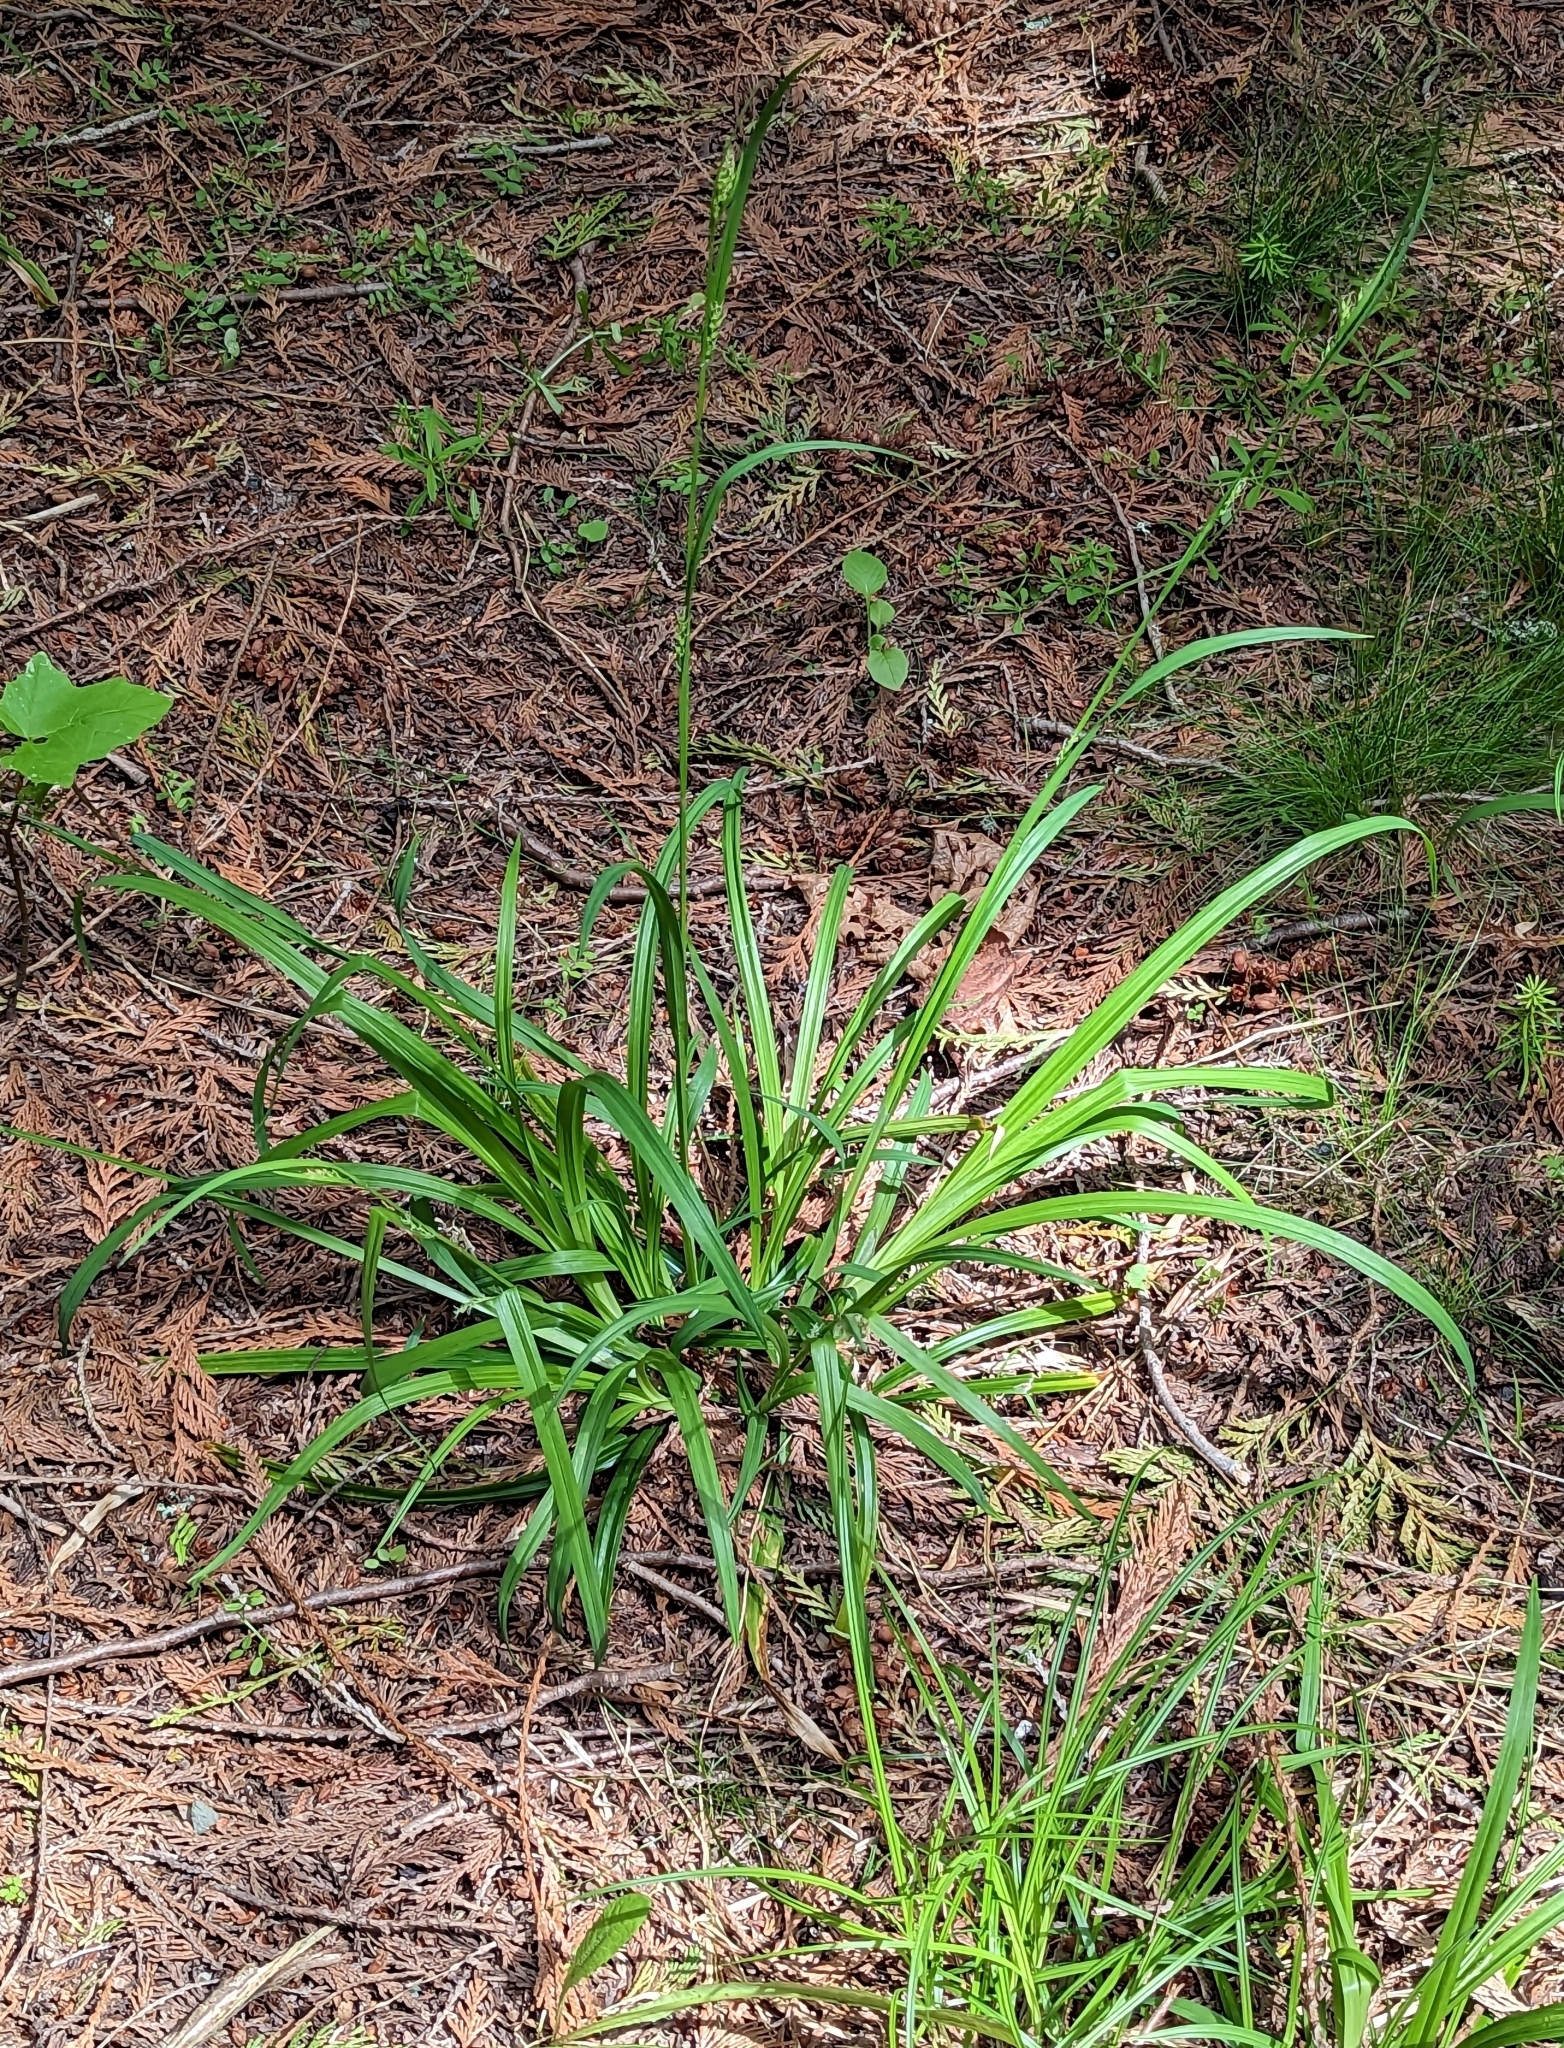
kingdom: Plantae
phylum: Tracheophyta
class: Liliopsida
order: Poales
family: Cyperaceae
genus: Carex
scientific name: Carex hendersonii
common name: Henderson's sedge
